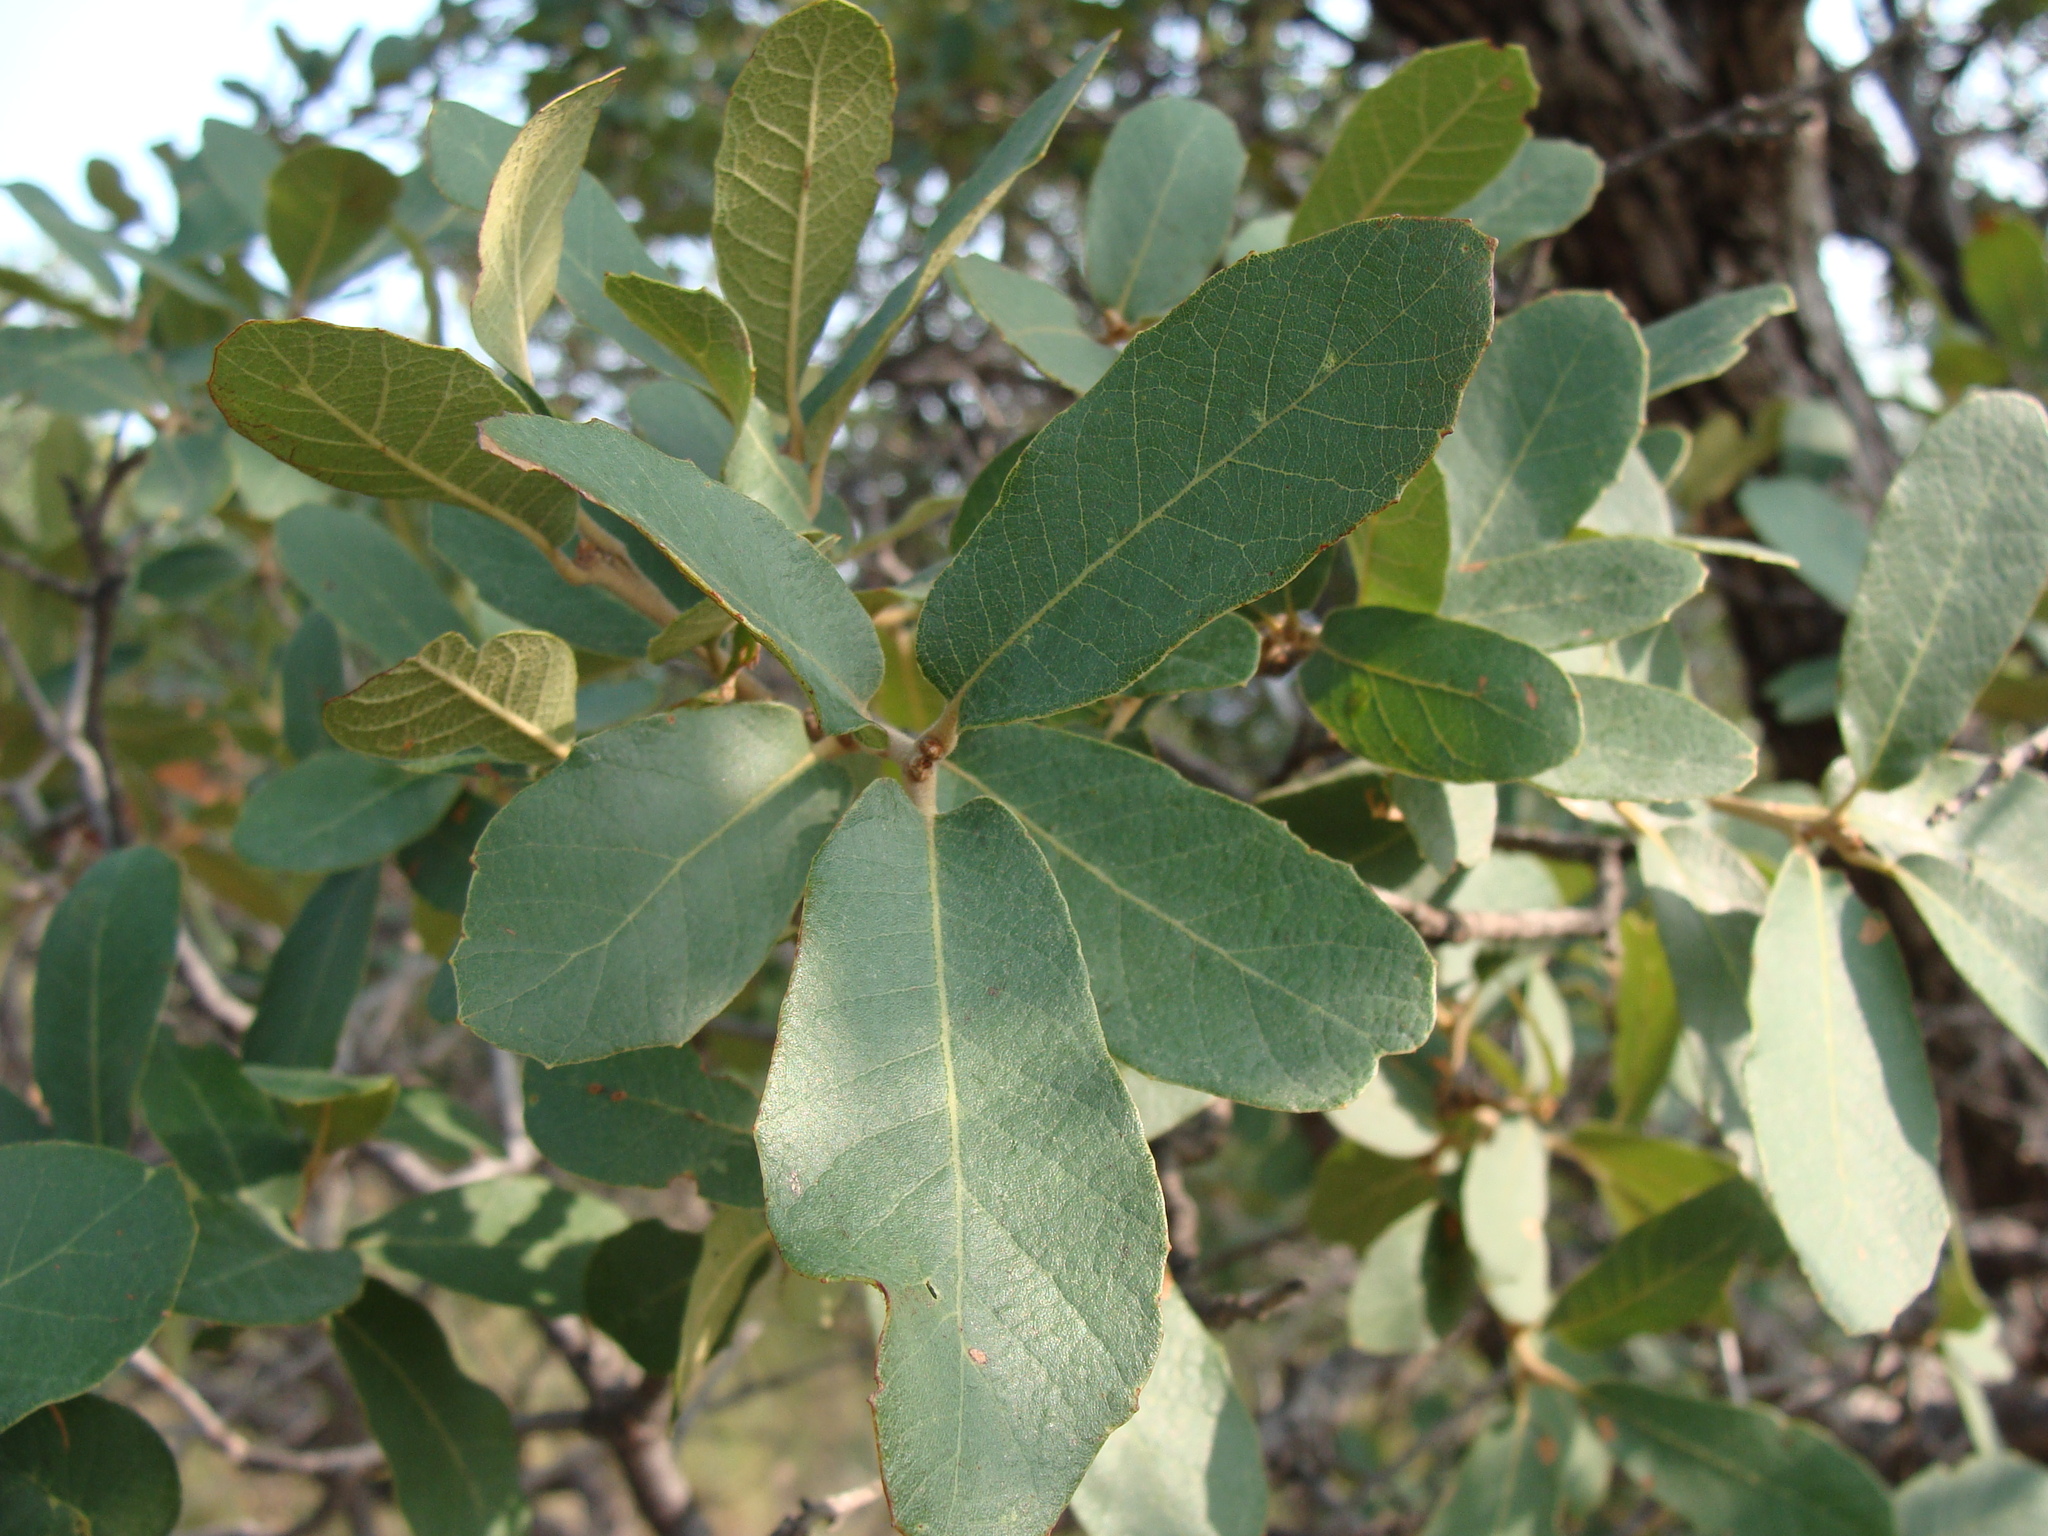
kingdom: Plantae
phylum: Tracheophyta
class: Magnoliopsida
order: Fagales
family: Fagaceae
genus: Quercus
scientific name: Quercus arizonica
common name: Arizona white oak
